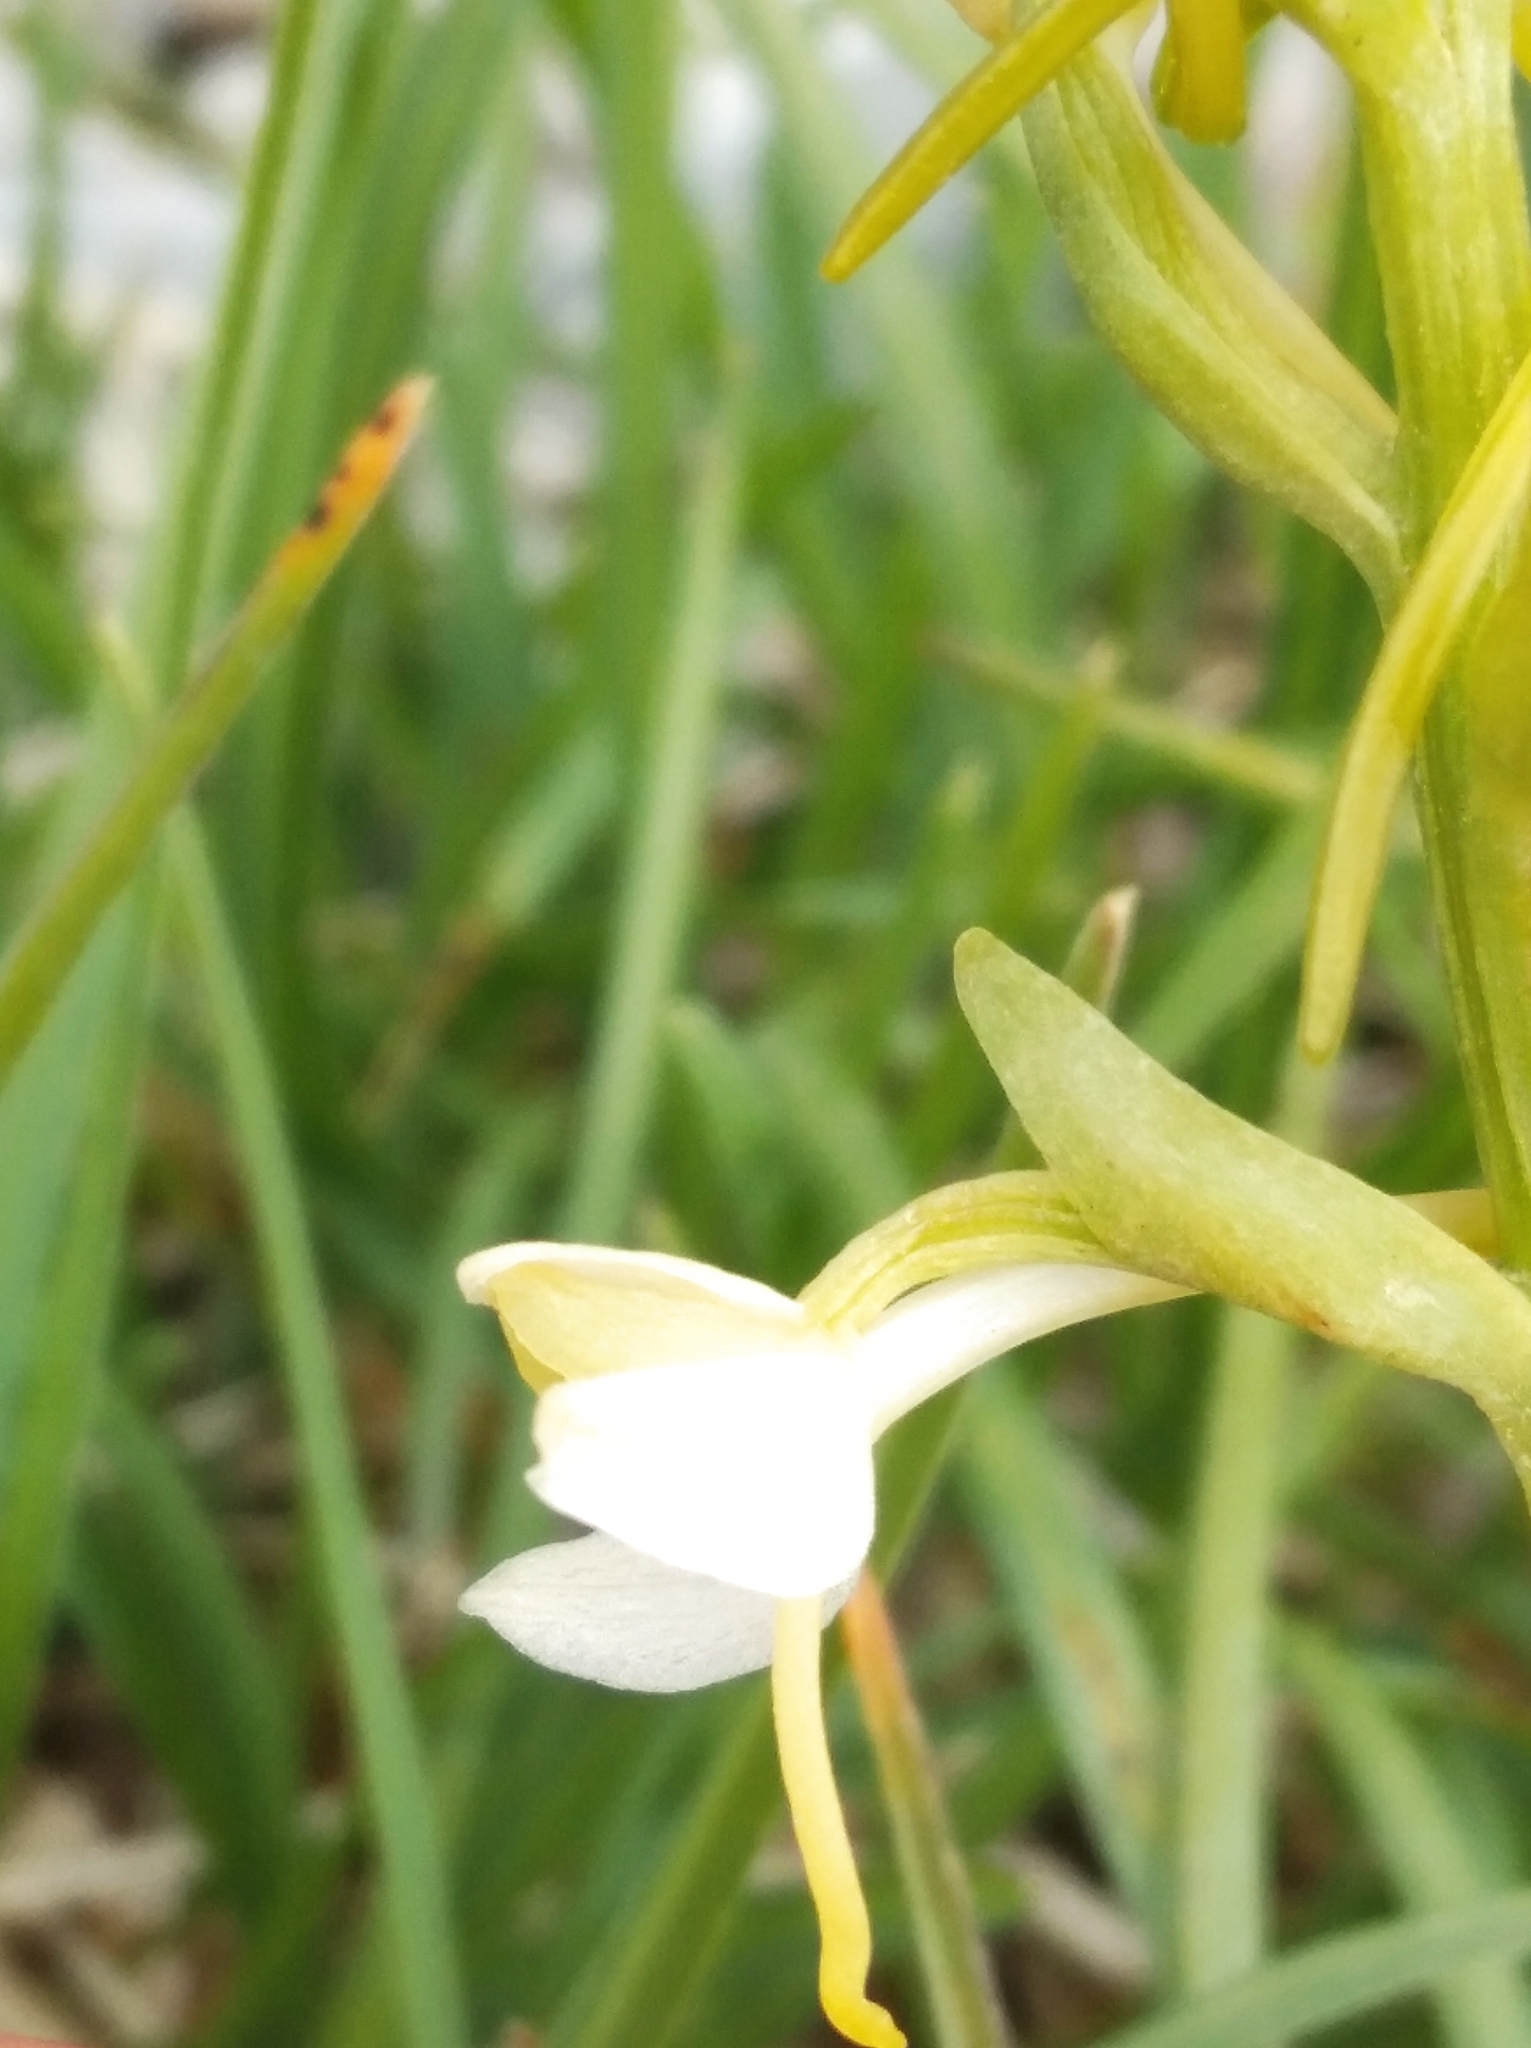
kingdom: Plantae
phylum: Tracheophyta
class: Liliopsida
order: Asparagales
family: Orchidaceae
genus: Platanthera
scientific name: Platanthera bifolia
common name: Lesser butterfly-orchid
